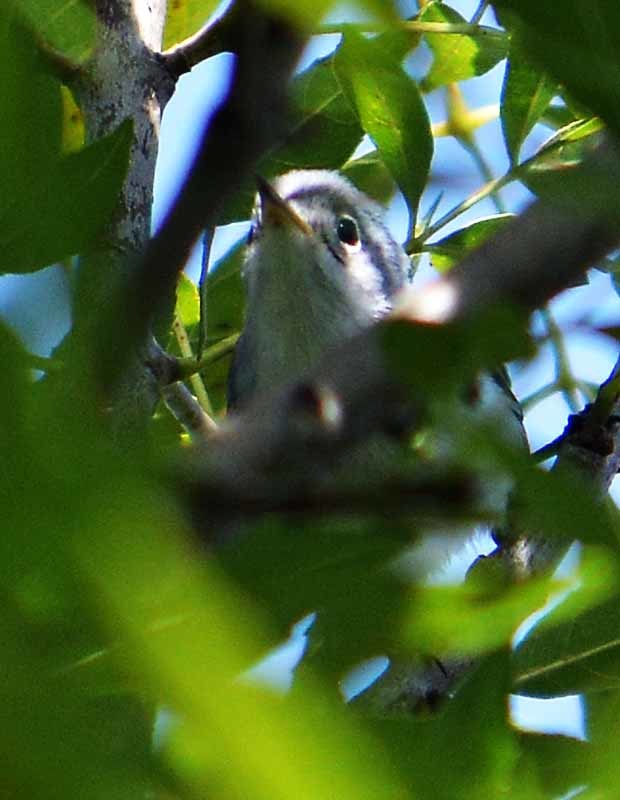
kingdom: Animalia
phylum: Chordata
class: Aves
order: Passeriformes
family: Polioptilidae
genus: Polioptila
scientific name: Polioptila caerulea
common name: Blue-gray gnatcatcher
